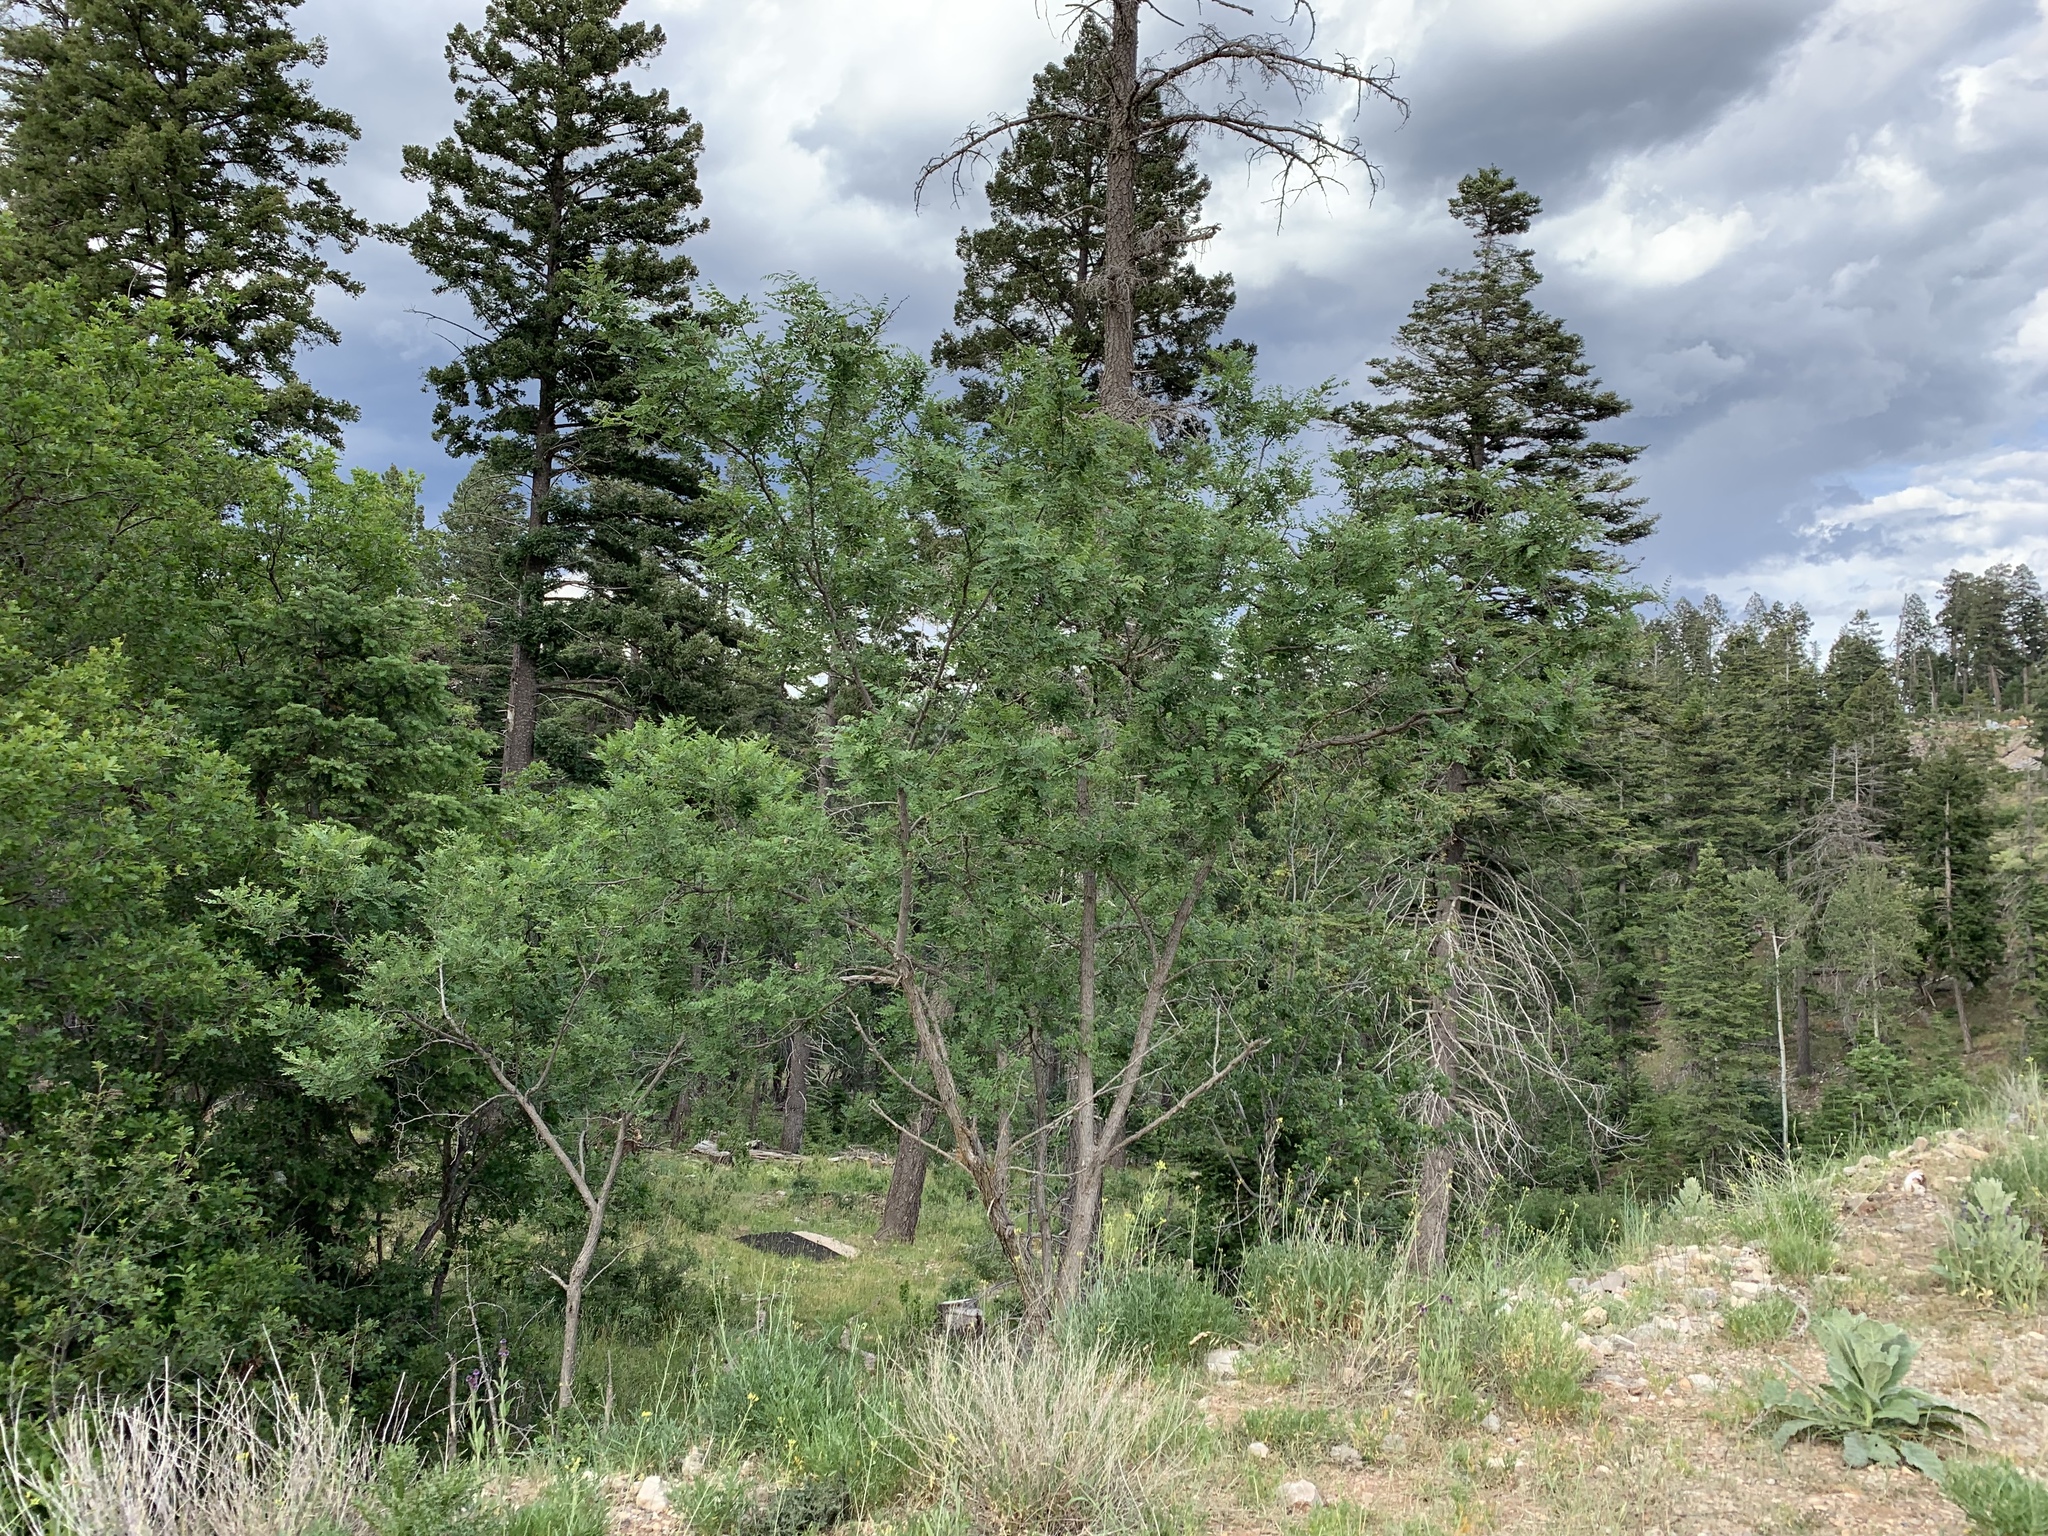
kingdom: Plantae
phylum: Tracheophyta
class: Magnoliopsida
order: Fabales
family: Fabaceae
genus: Robinia
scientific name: Robinia neomexicana
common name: New mexico locust
